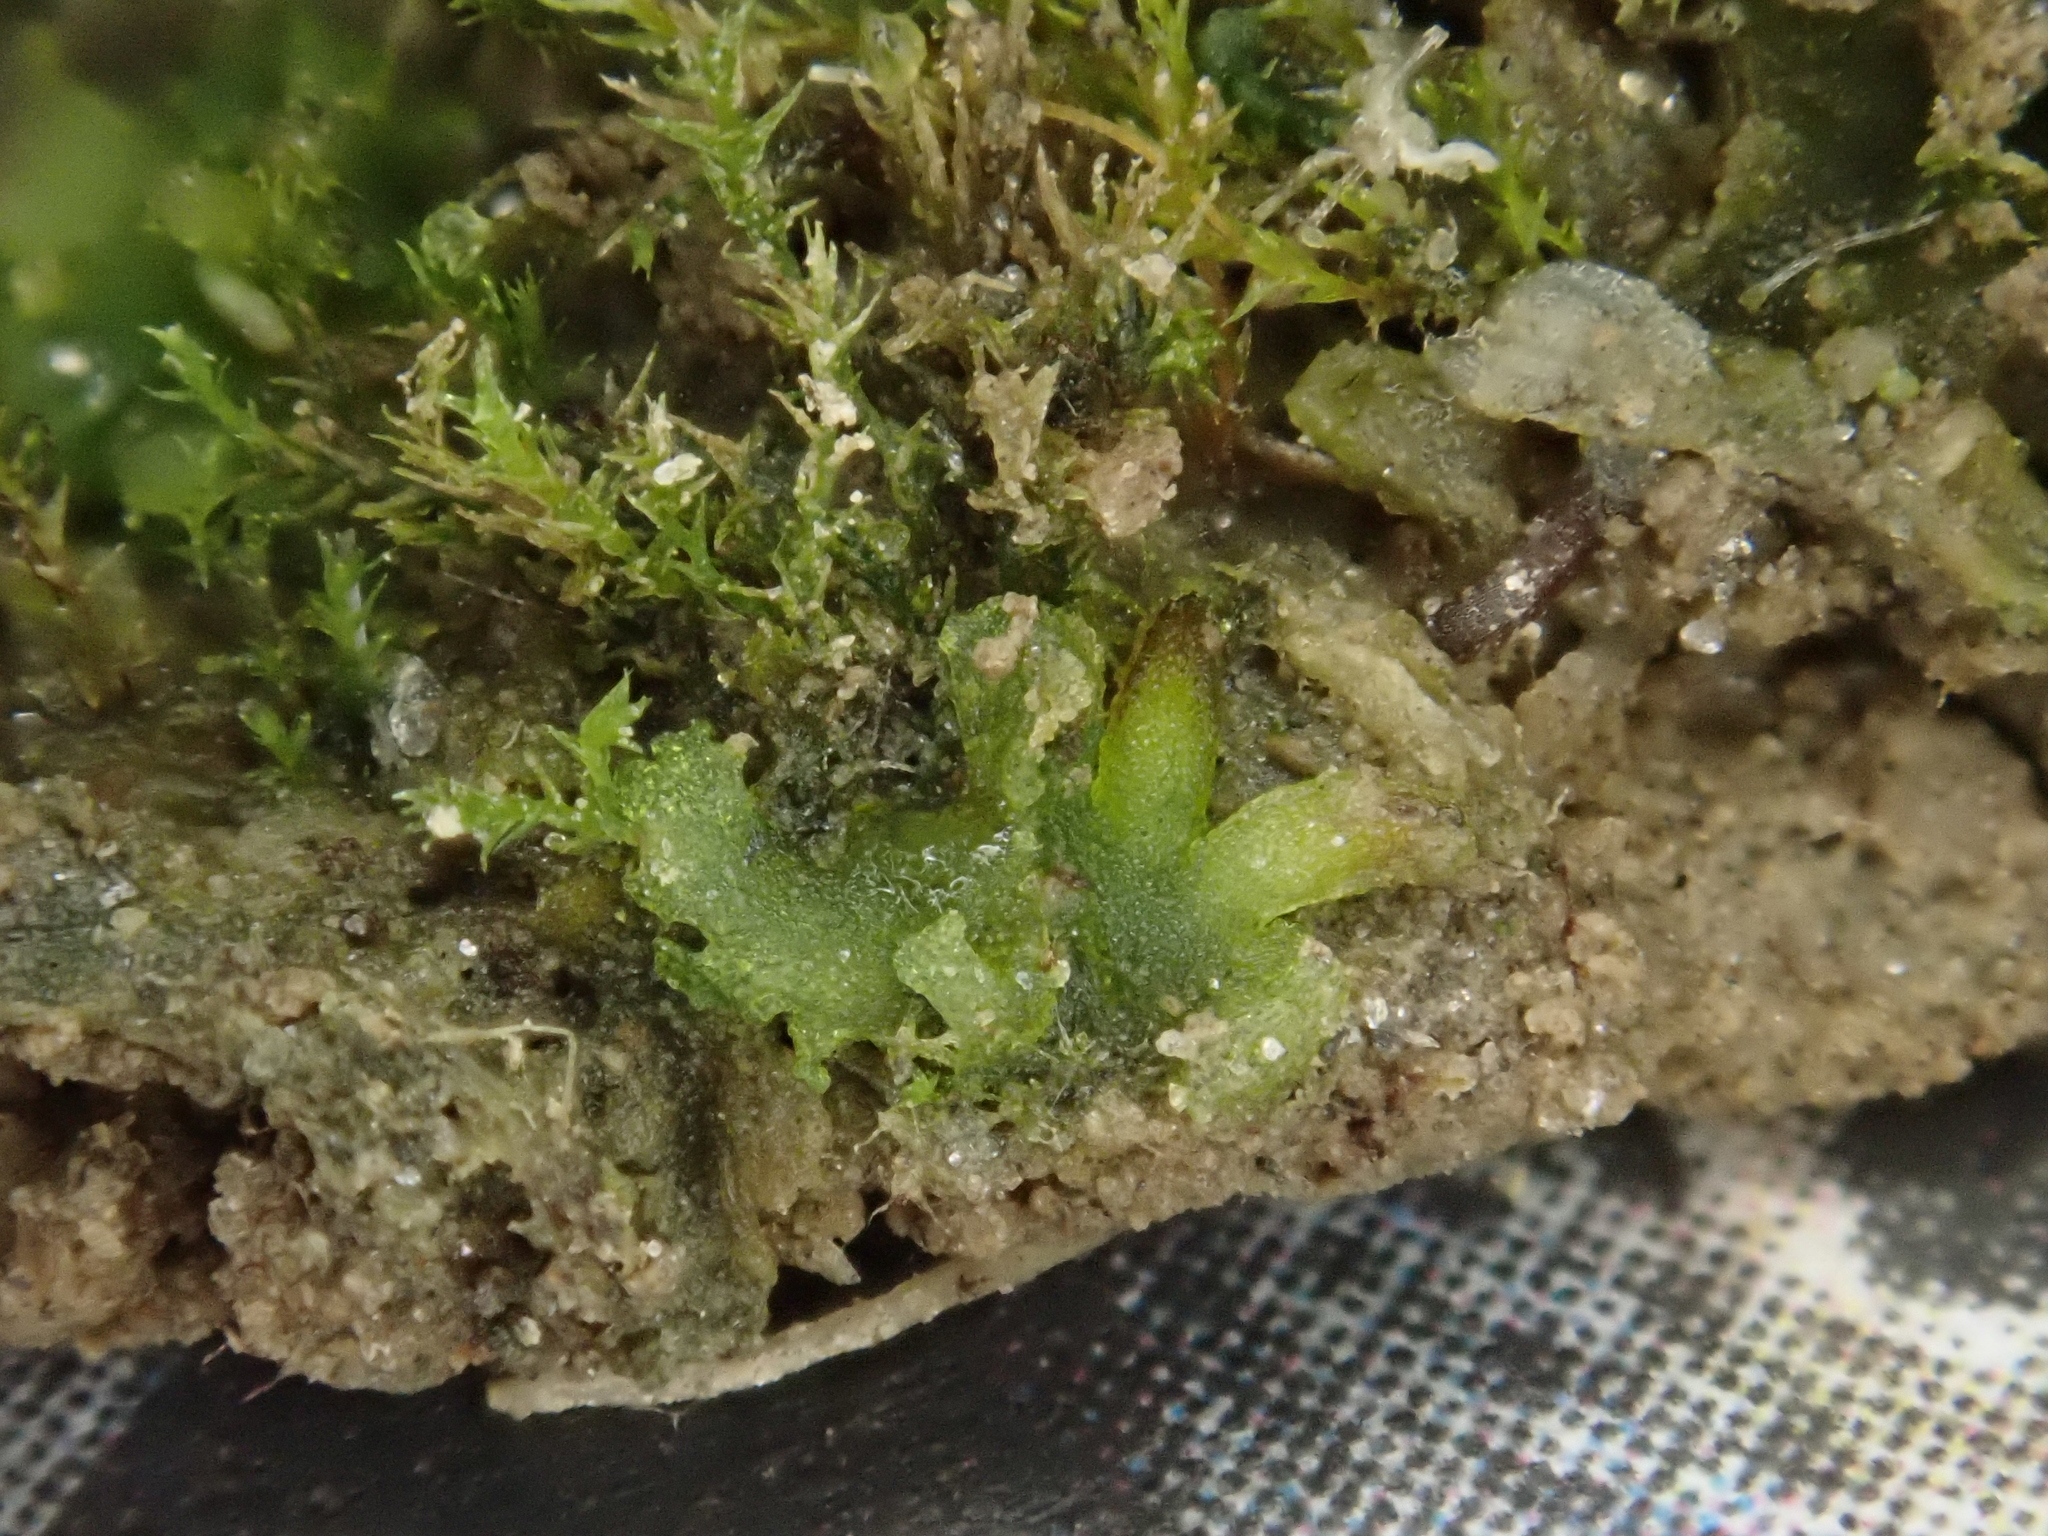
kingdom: Plantae
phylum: Anthocerotophyta
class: Anthocerotopsida
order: Notothyladales
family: Notothyladaceae
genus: Notothylas
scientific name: Notothylas orbicularis
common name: Short-horned liverwort
